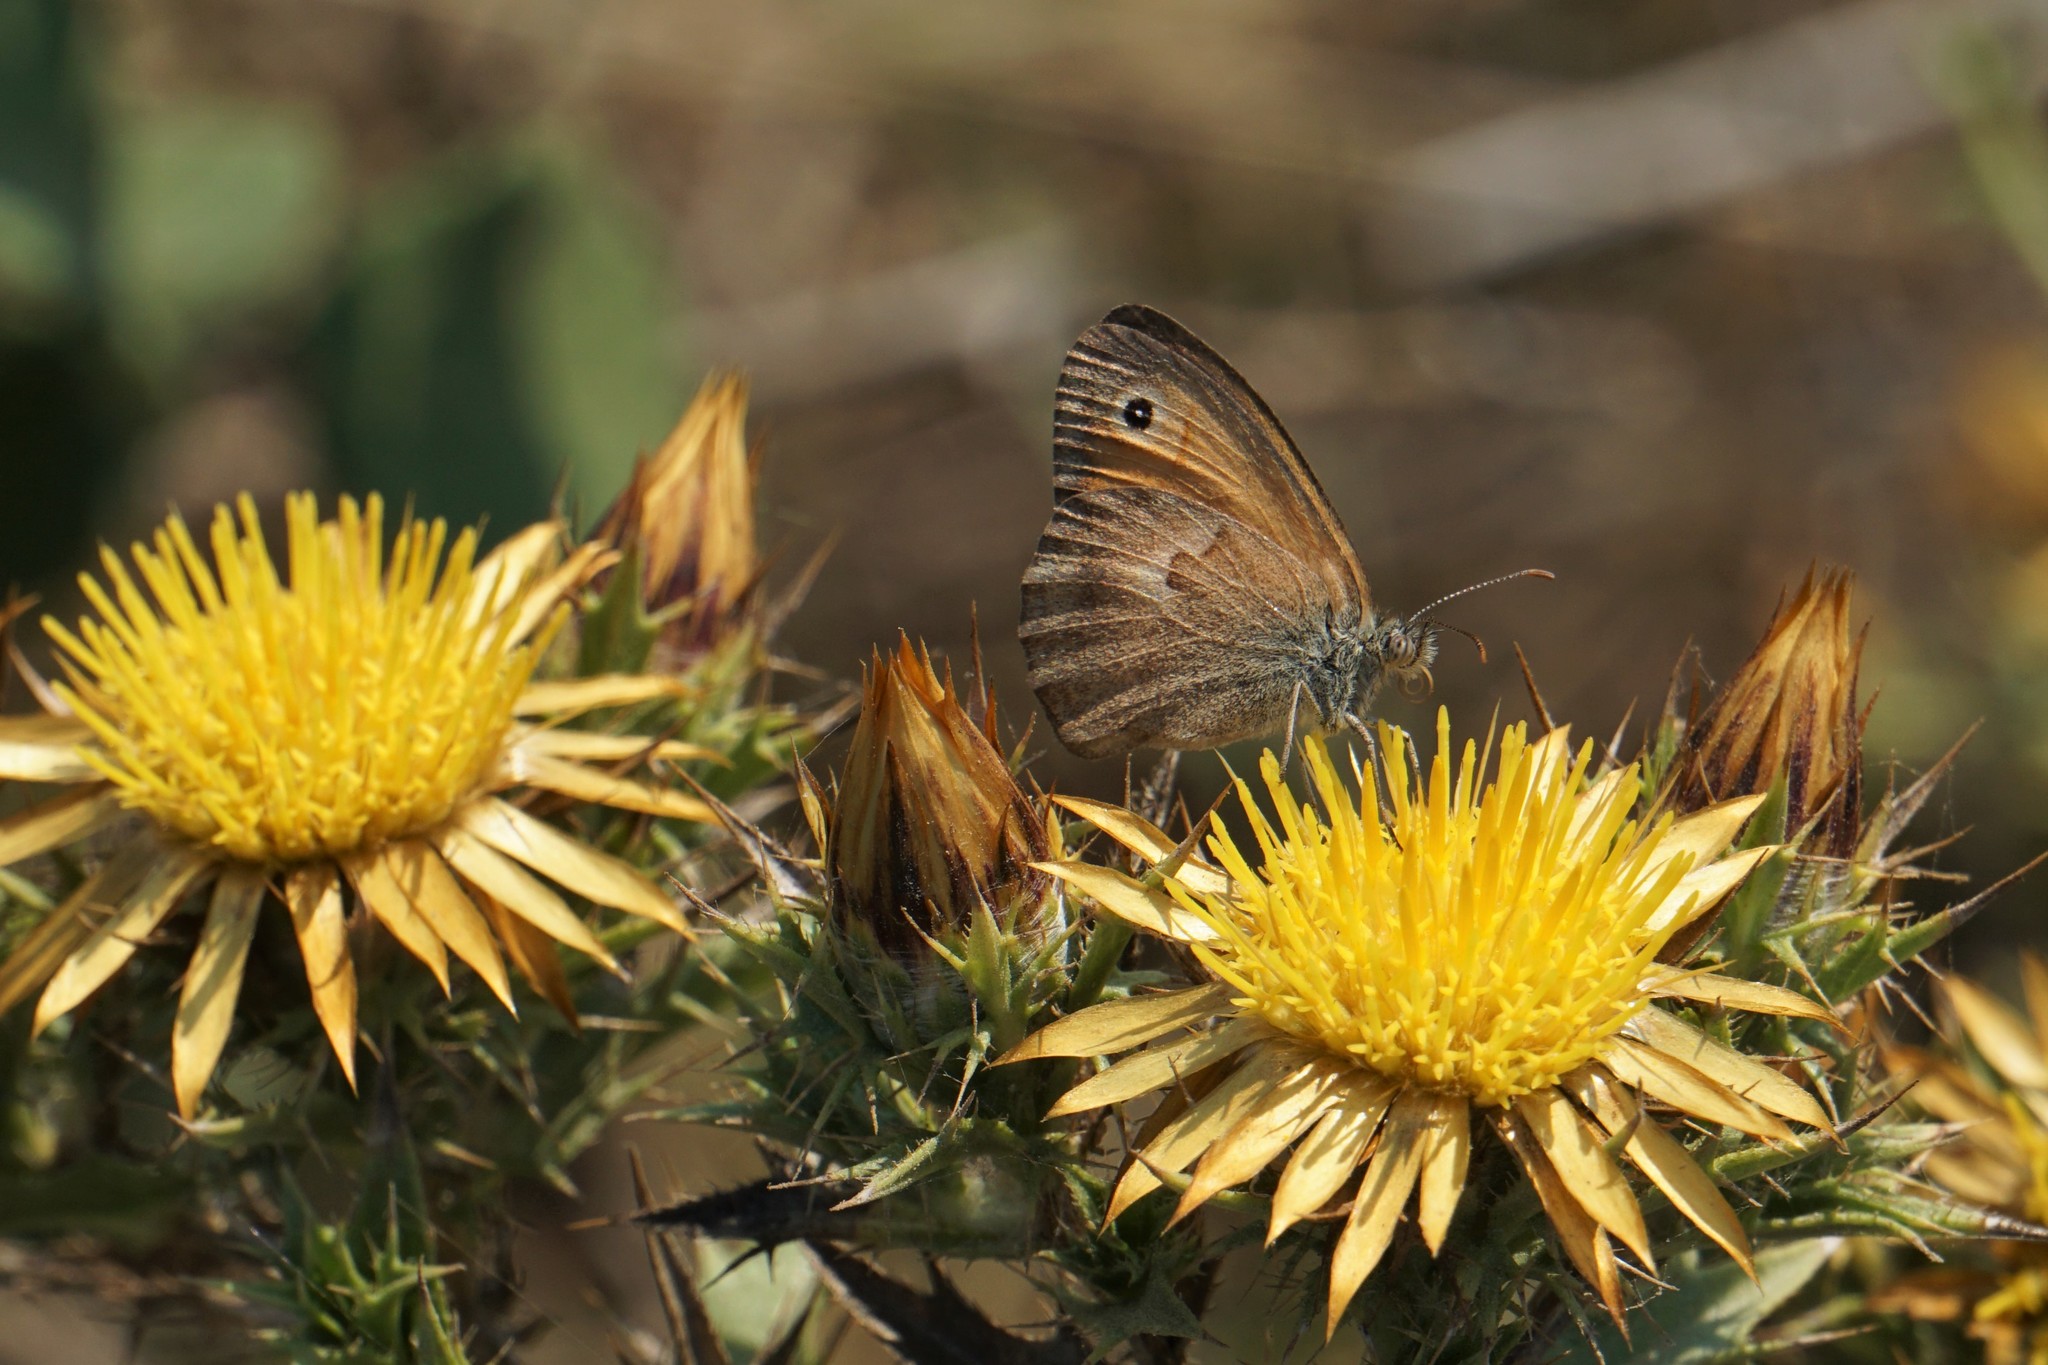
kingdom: Animalia
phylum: Arthropoda
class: Insecta
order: Lepidoptera
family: Nymphalidae
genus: Coenonympha
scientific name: Coenonympha pamphilus
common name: Small heath
